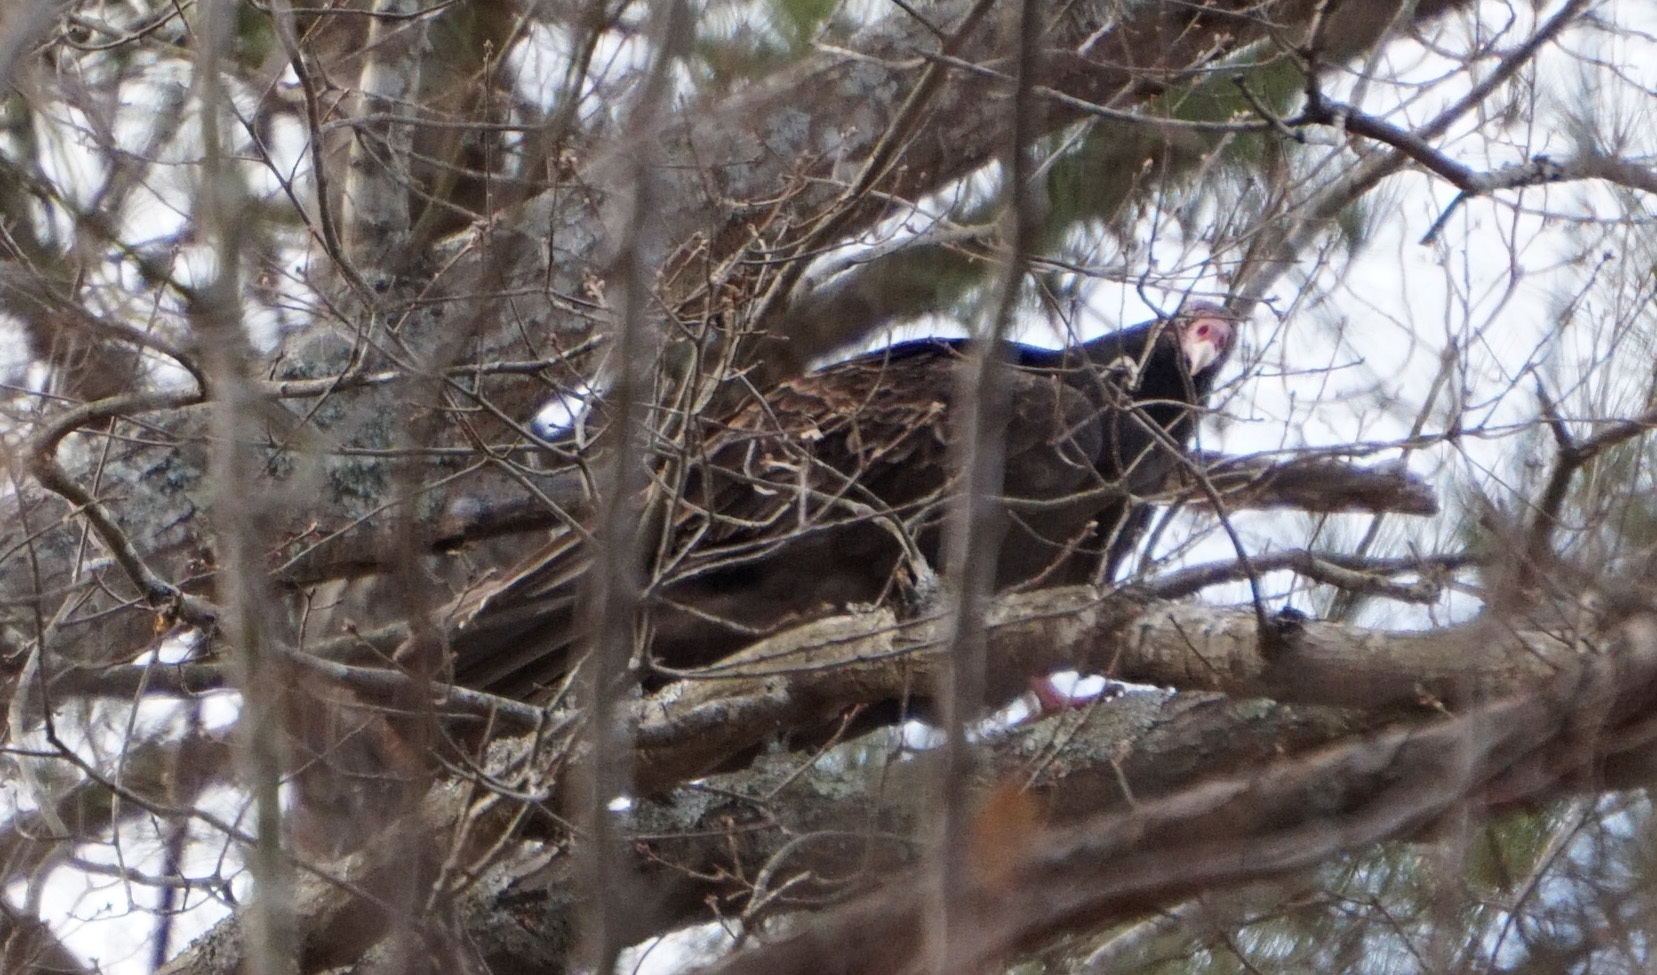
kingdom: Animalia
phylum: Chordata
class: Aves
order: Accipitriformes
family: Cathartidae
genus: Cathartes
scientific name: Cathartes aura
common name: Turkey vulture
